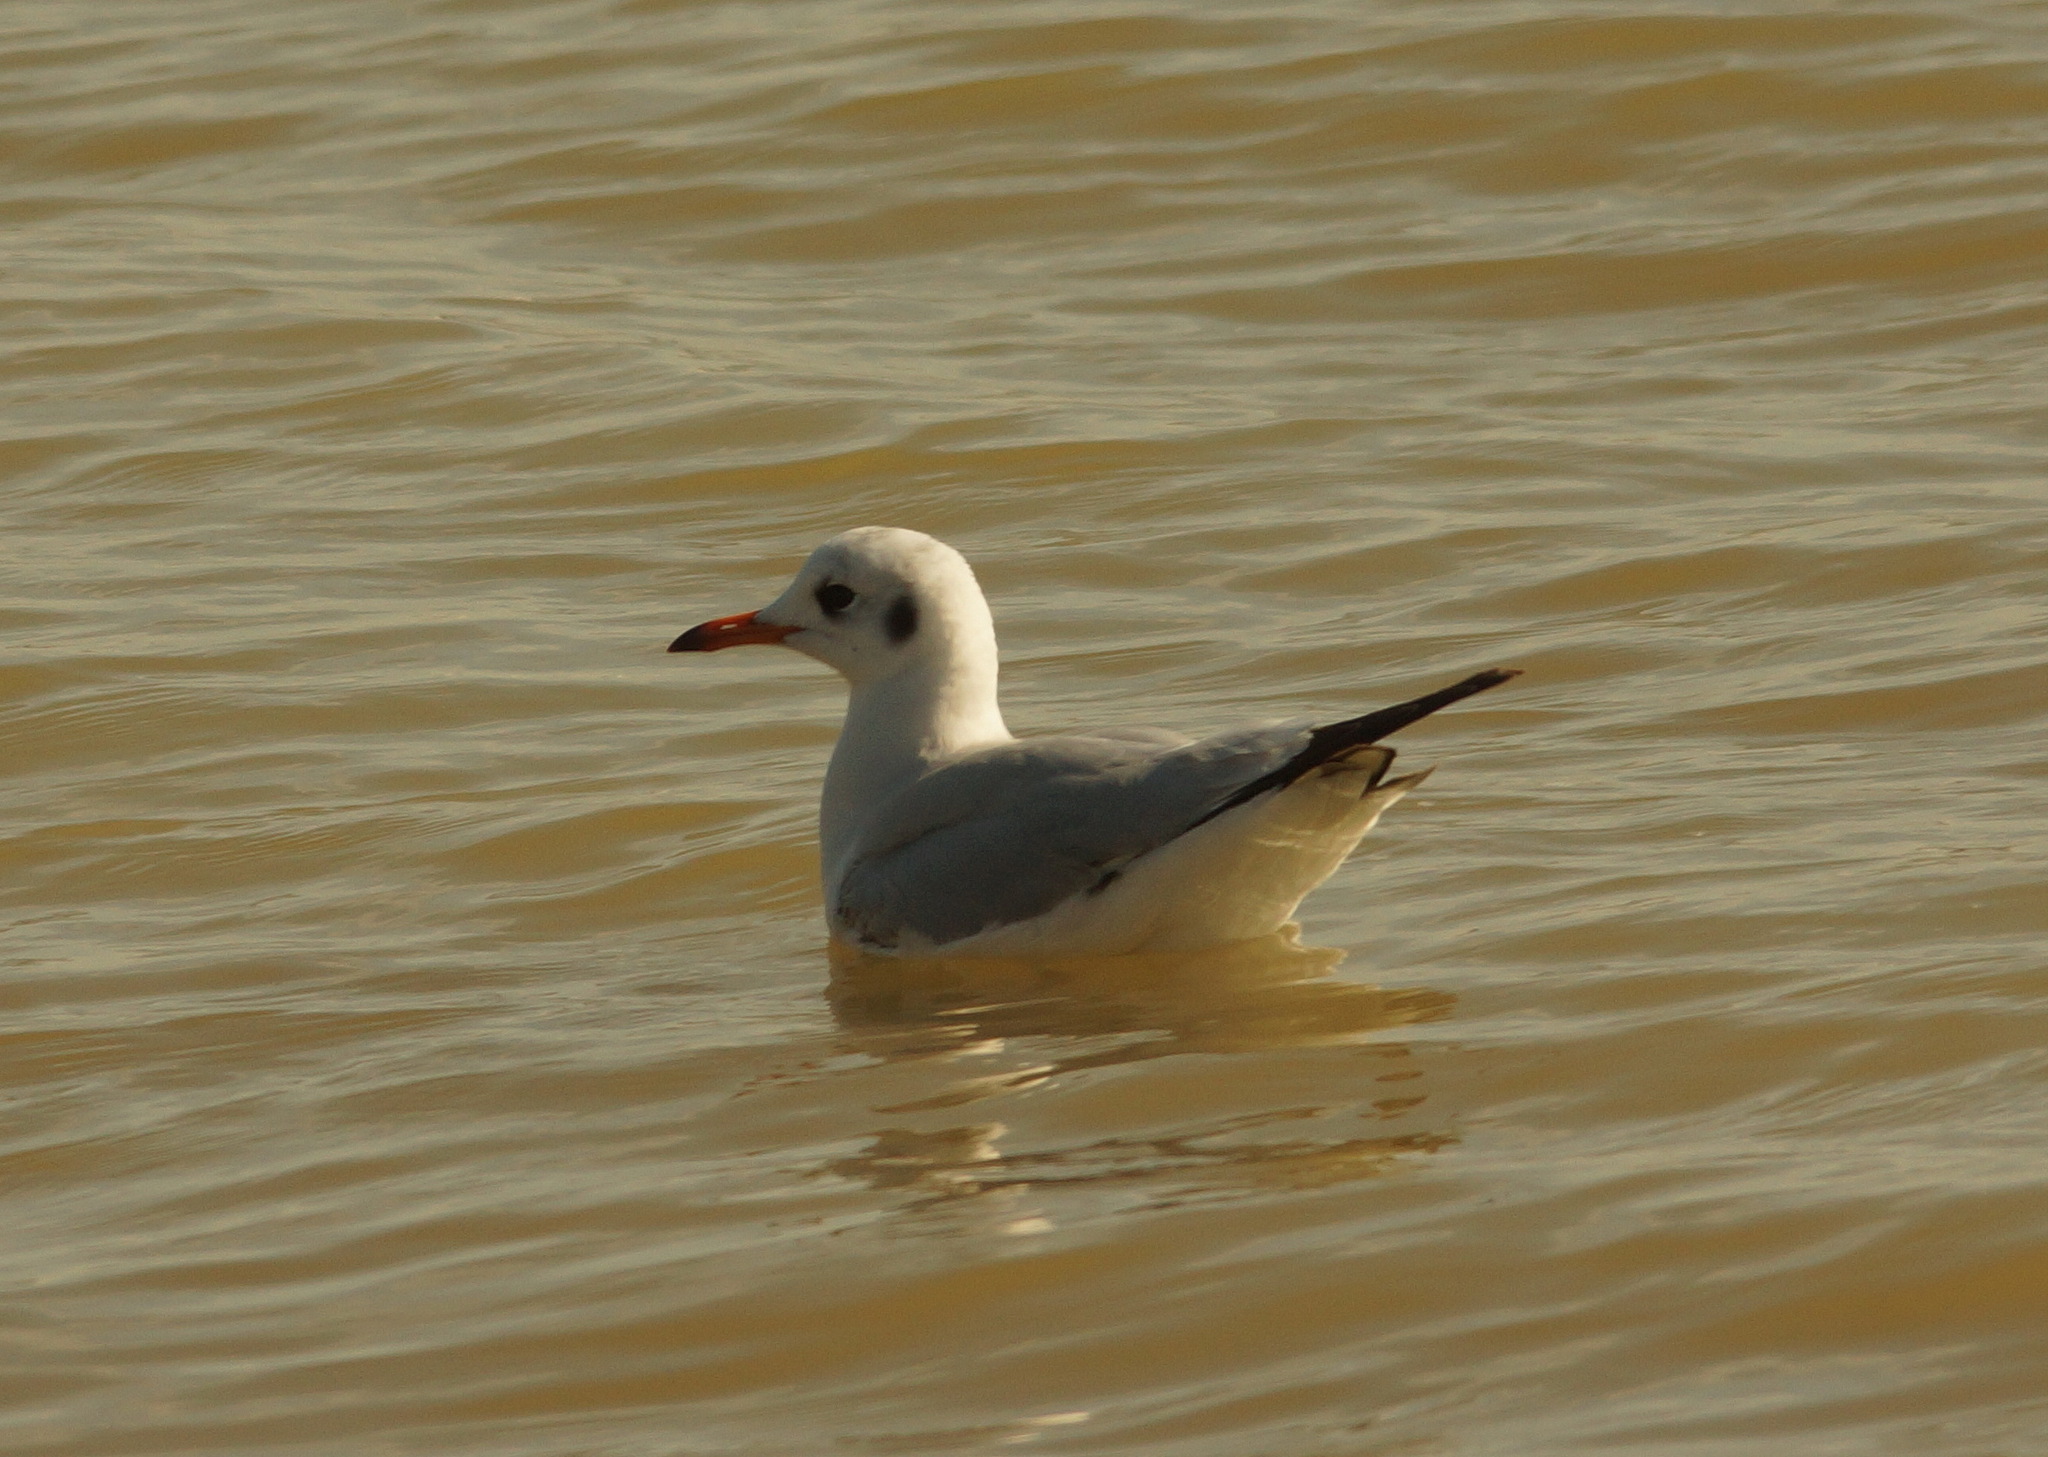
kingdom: Animalia
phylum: Chordata
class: Aves
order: Charadriiformes
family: Laridae
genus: Chroicocephalus
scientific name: Chroicocephalus ridibundus
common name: Black-headed gull
